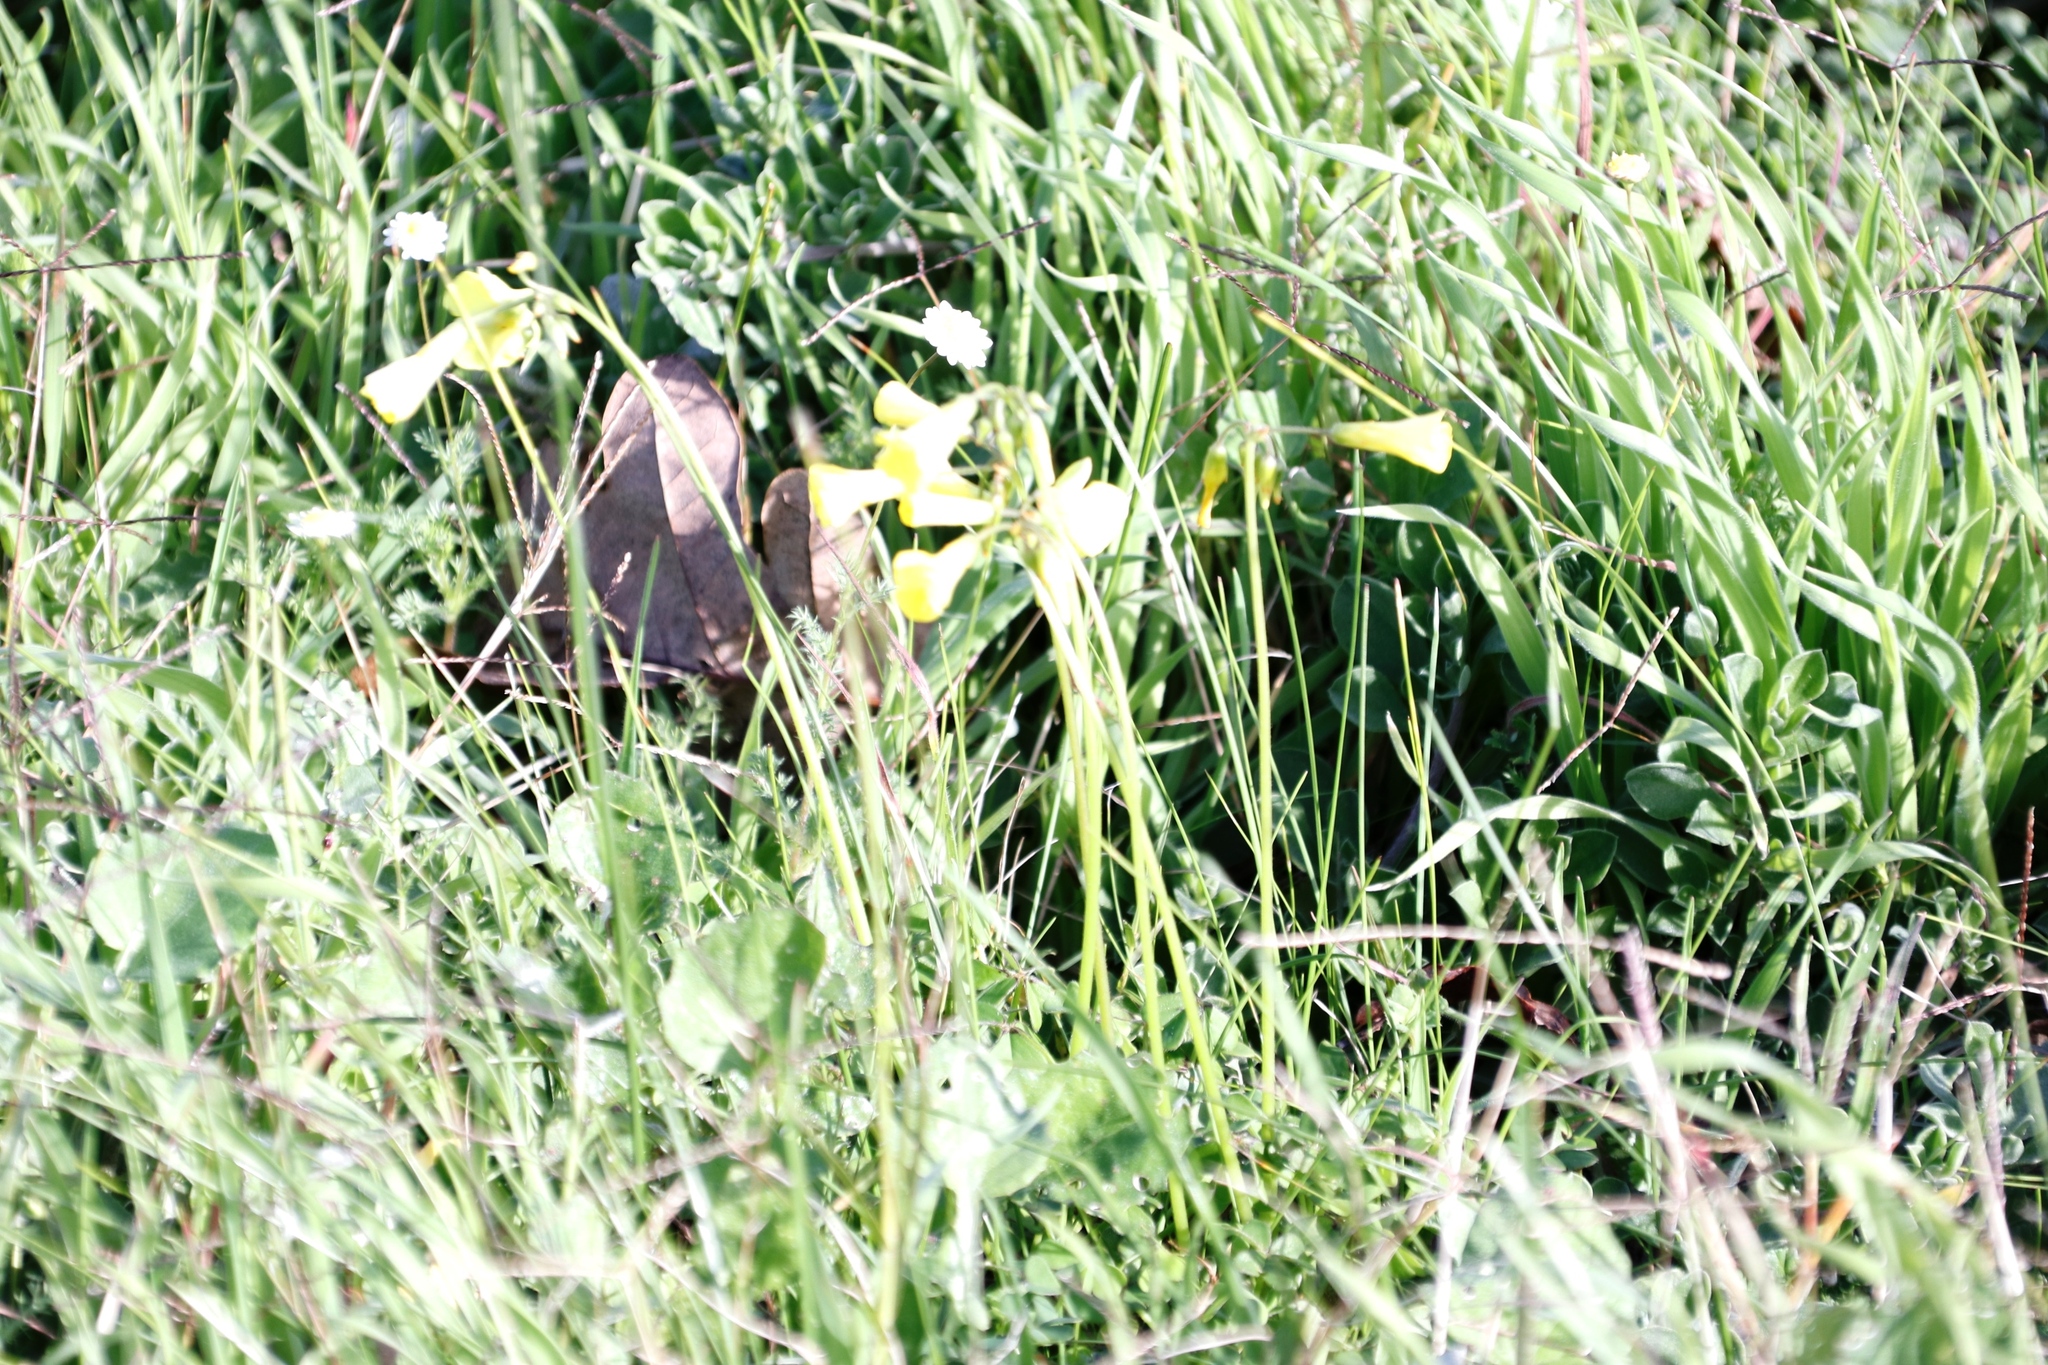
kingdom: Plantae
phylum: Tracheophyta
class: Magnoliopsida
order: Oxalidales
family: Oxalidaceae
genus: Oxalis
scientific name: Oxalis pes-caprae
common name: Bermuda-buttercup
